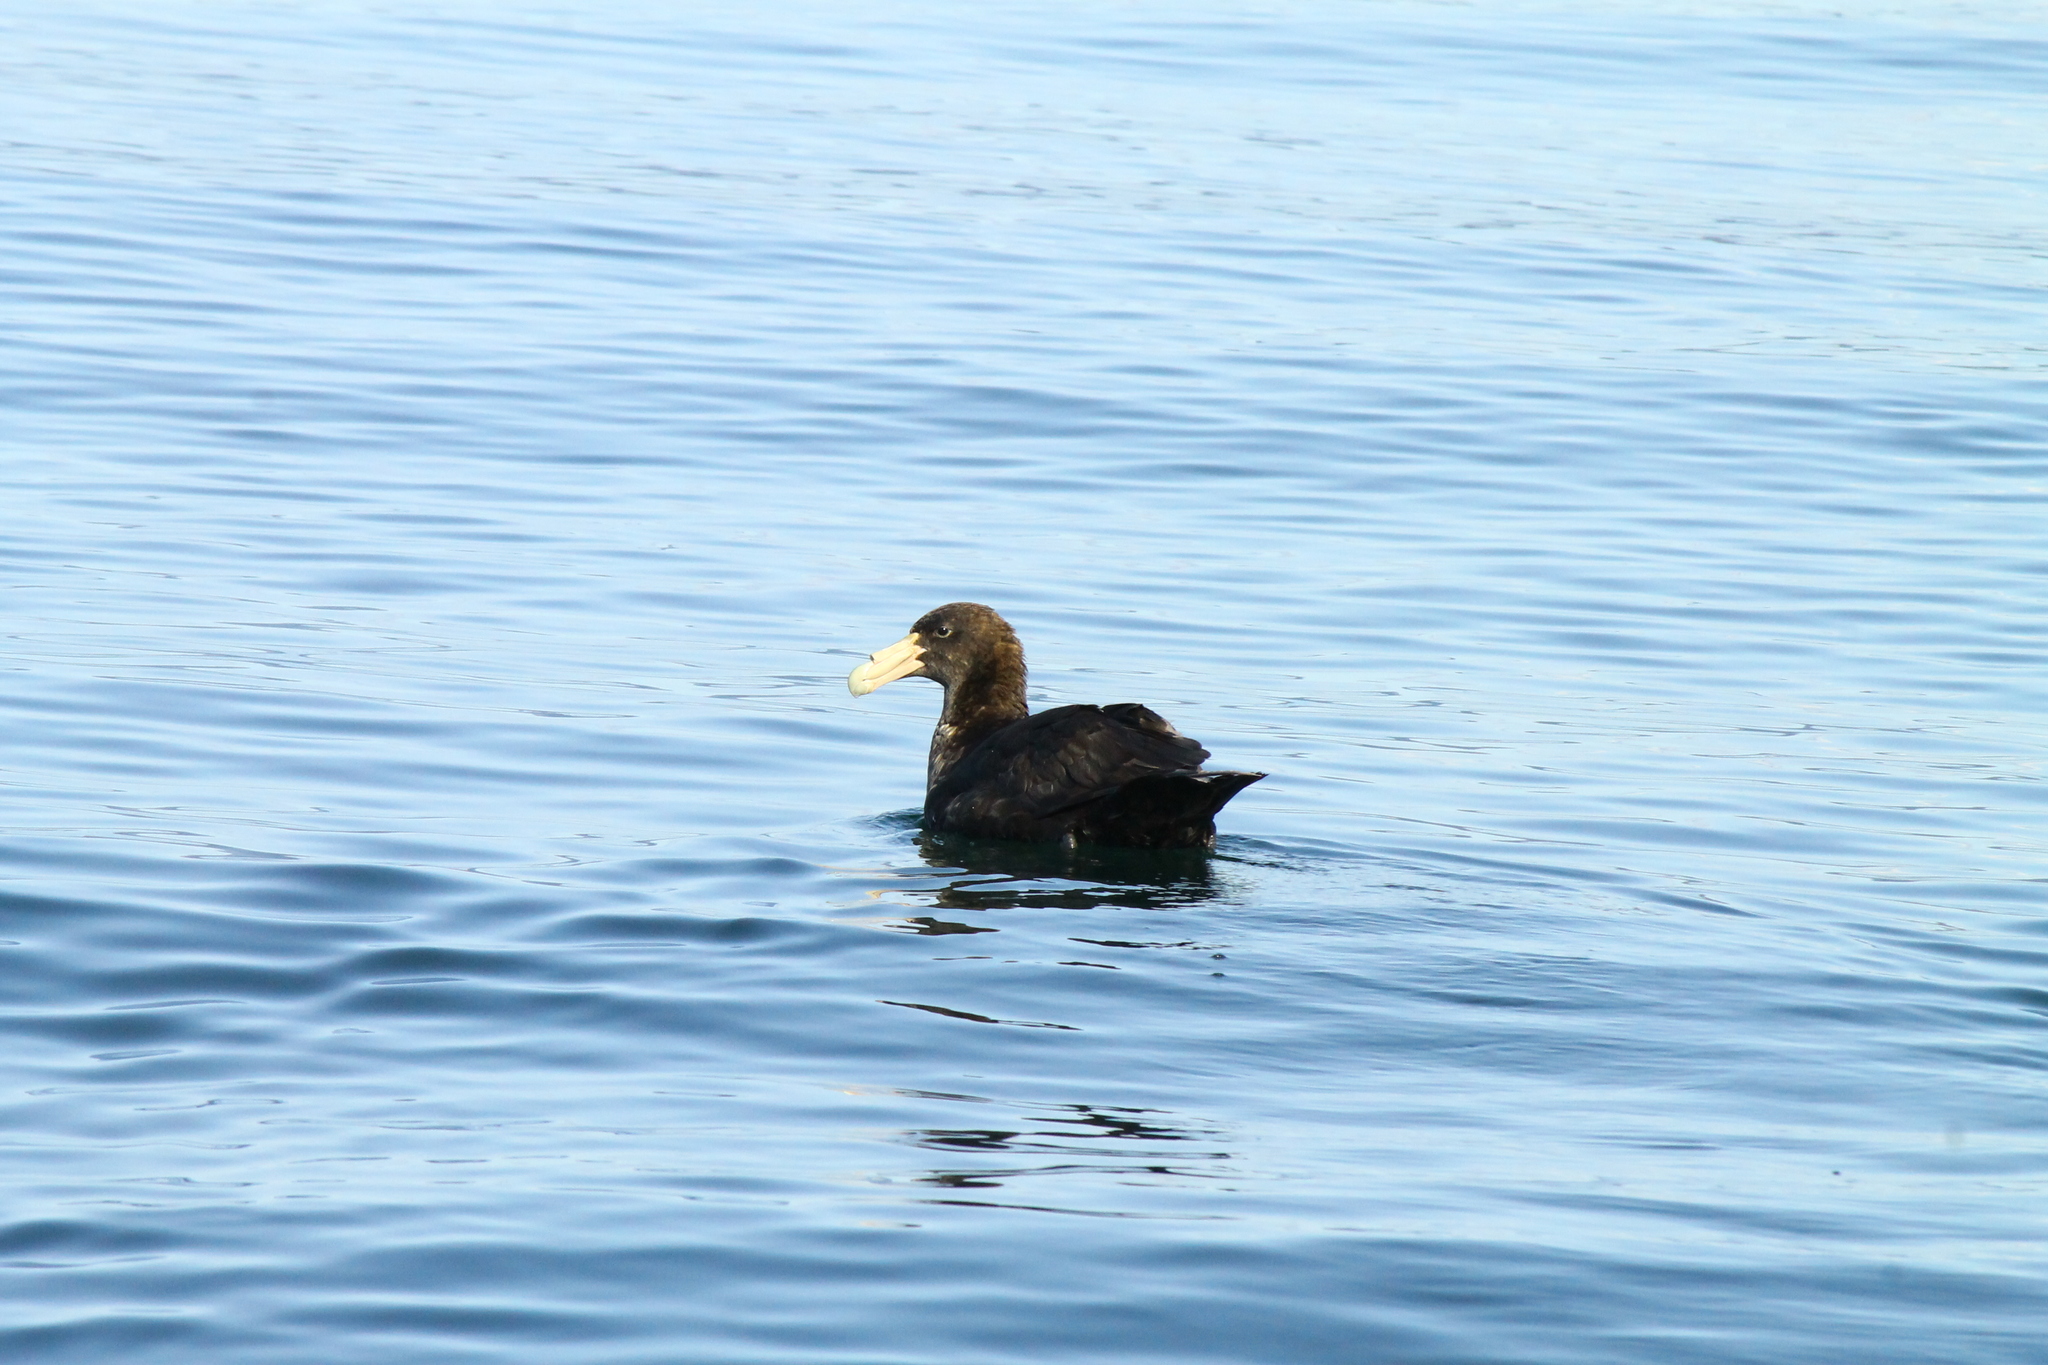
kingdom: Animalia
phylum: Chordata
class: Aves
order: Procellariiformes
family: Procellariidae
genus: Macronectes
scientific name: Macronectes giganteus
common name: Southern giant petrel
